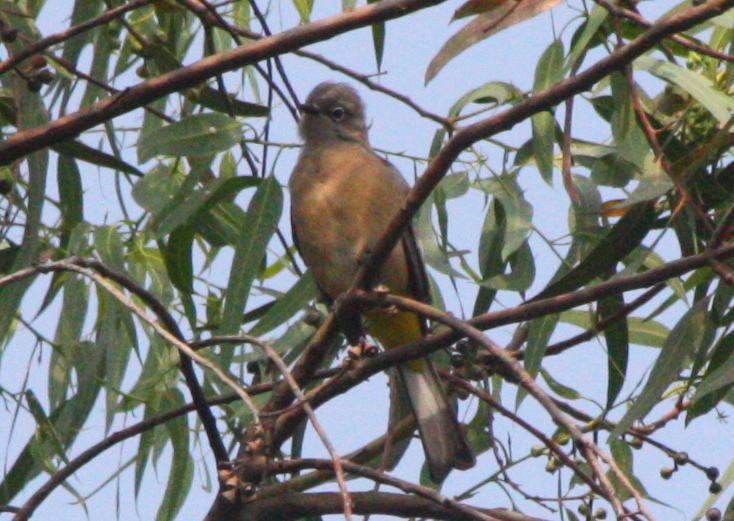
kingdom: Animalia
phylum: Chordata
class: Aves
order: Passeriformes
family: Ptilogonatidae
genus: Ptilogonys
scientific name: Ptilogonys cinereus
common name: Gray silky-flycatcher
